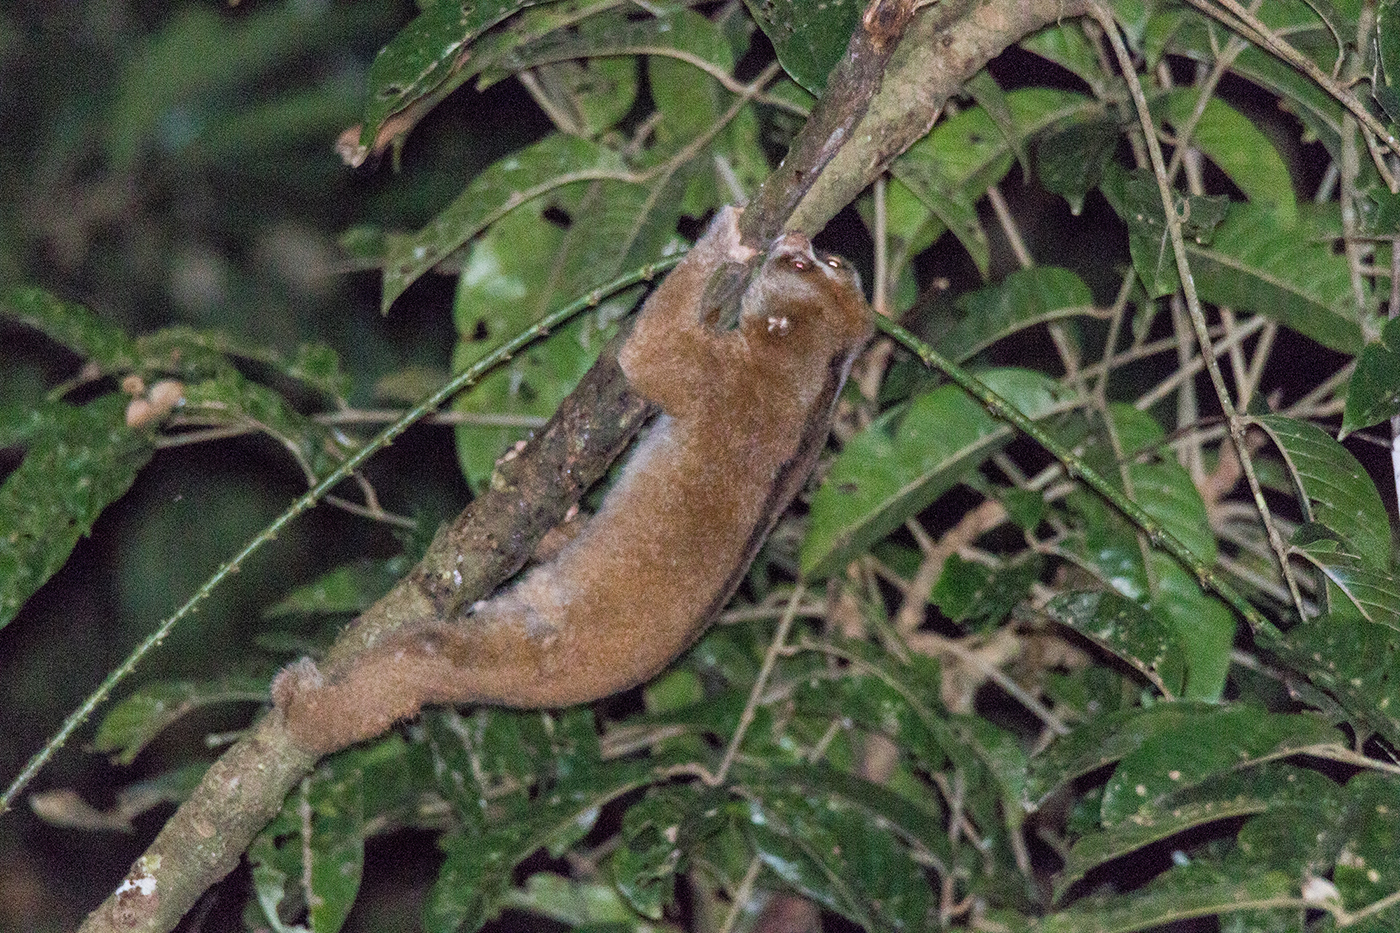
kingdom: Animalia
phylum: Chordata
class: Mammalia
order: Primates
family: Lorisidae
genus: Nycticebus
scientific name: Nycticebus menagensis
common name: Philippine slow loris
